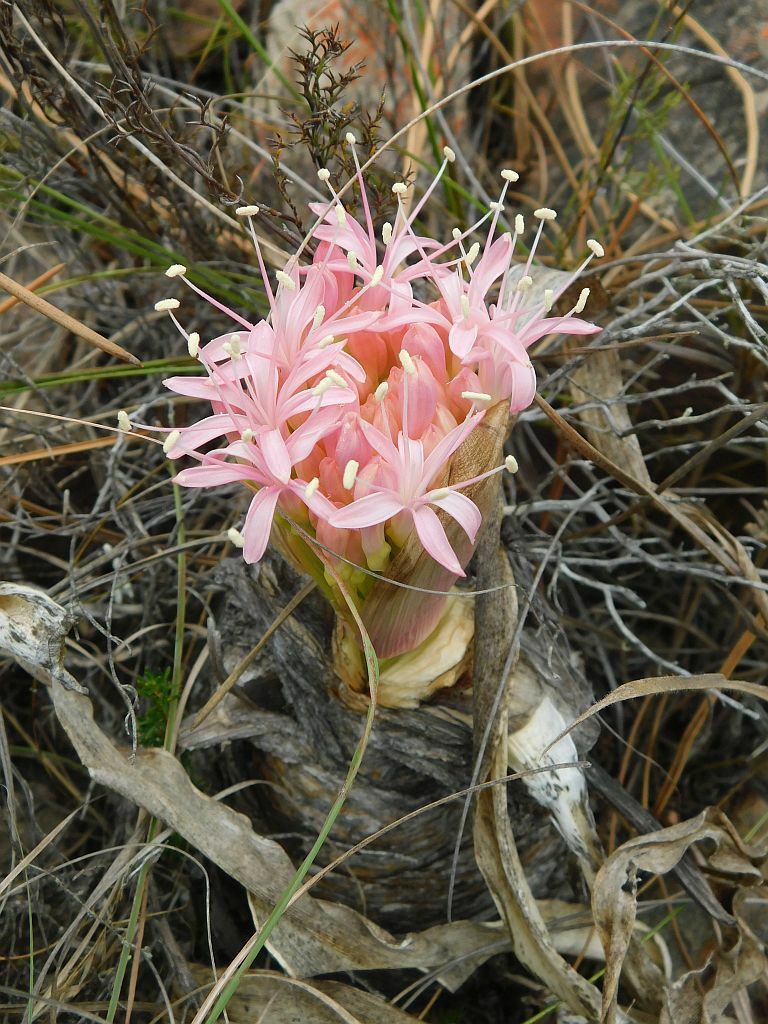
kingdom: Plantae
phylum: Tracheophyta
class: Liliopsida
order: Asparagales
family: Amaryllidaceae
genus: Boophone
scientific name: Boophone disticha
